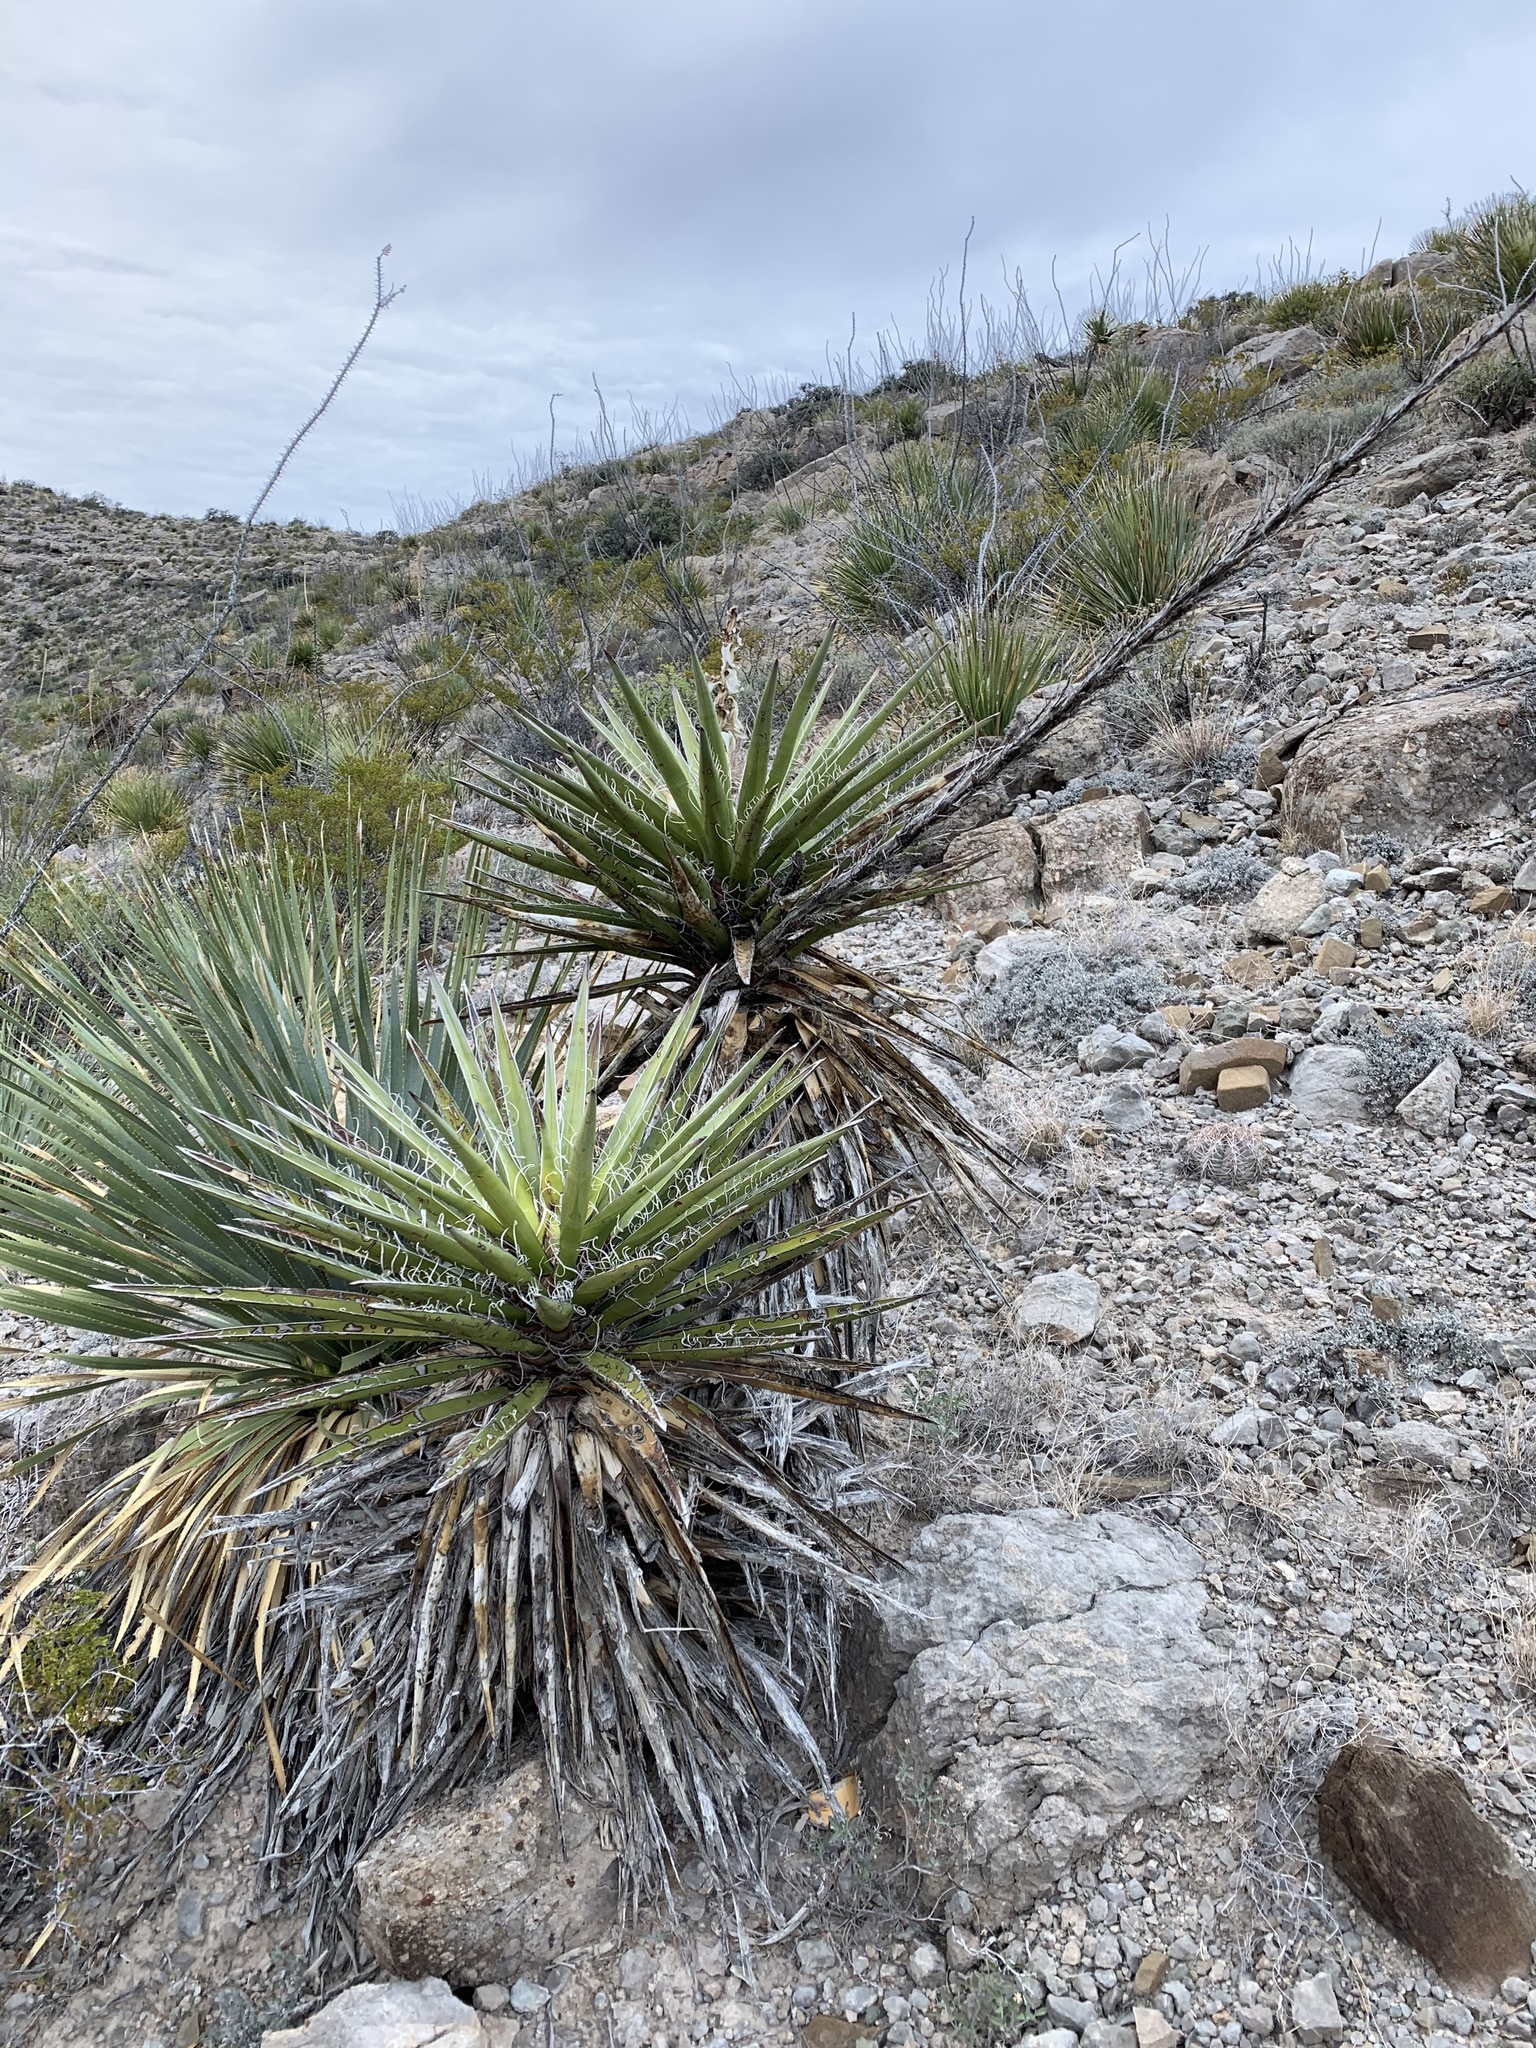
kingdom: Plantae
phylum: Tracheophyta
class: Liliopsida
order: Asparagales
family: Asparagaceae
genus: Yucca
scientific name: Yucca treculiana
